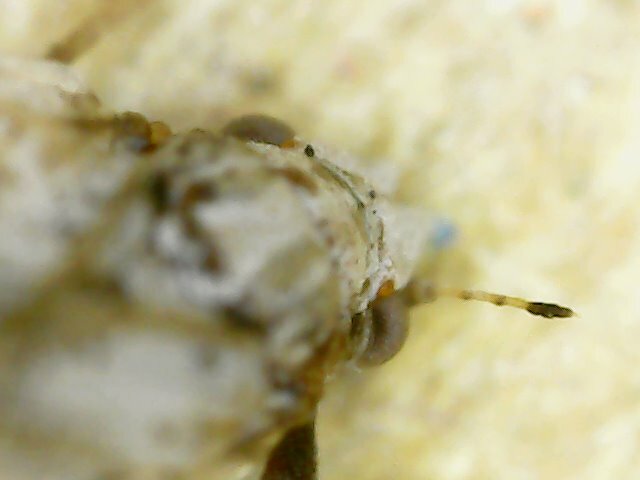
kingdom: Animalia
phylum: Arthropoda
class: Insecta
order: Hemiptera
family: Liviidae
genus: Diaphorina
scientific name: Diaphorina citri
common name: Asian citrus psyllid
